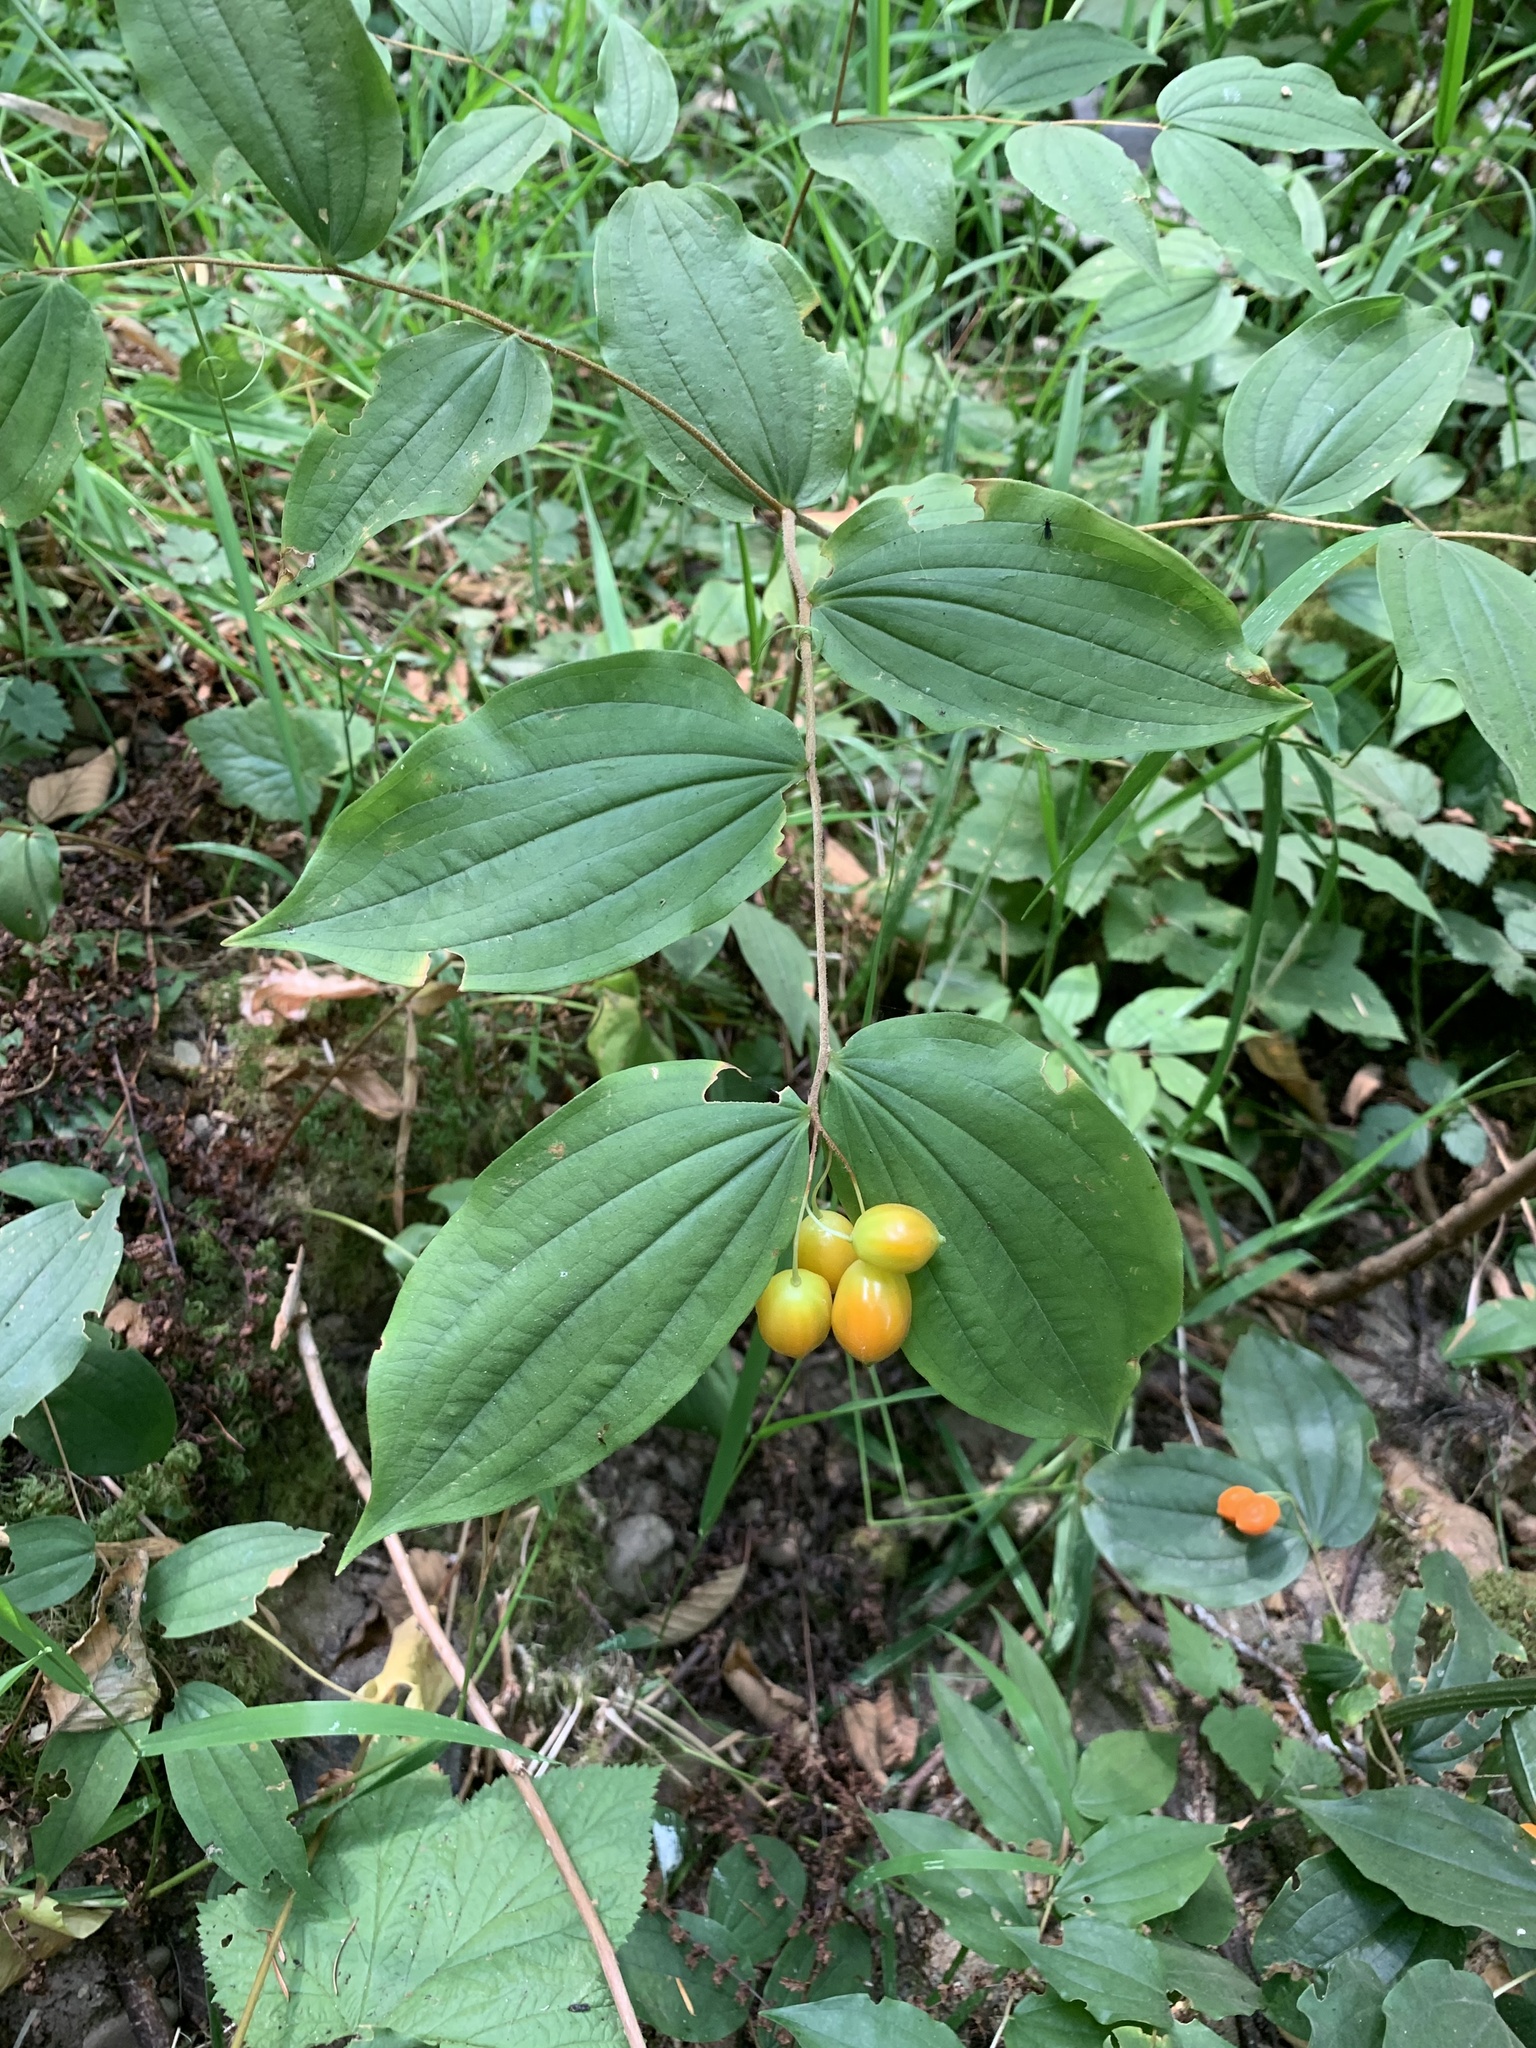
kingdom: Plantae
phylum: Tracheophyta
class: Liliopsida
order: Liliales
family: Liliaceae
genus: Prosartes
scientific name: Prosartes smithii
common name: Fairy-lantern
